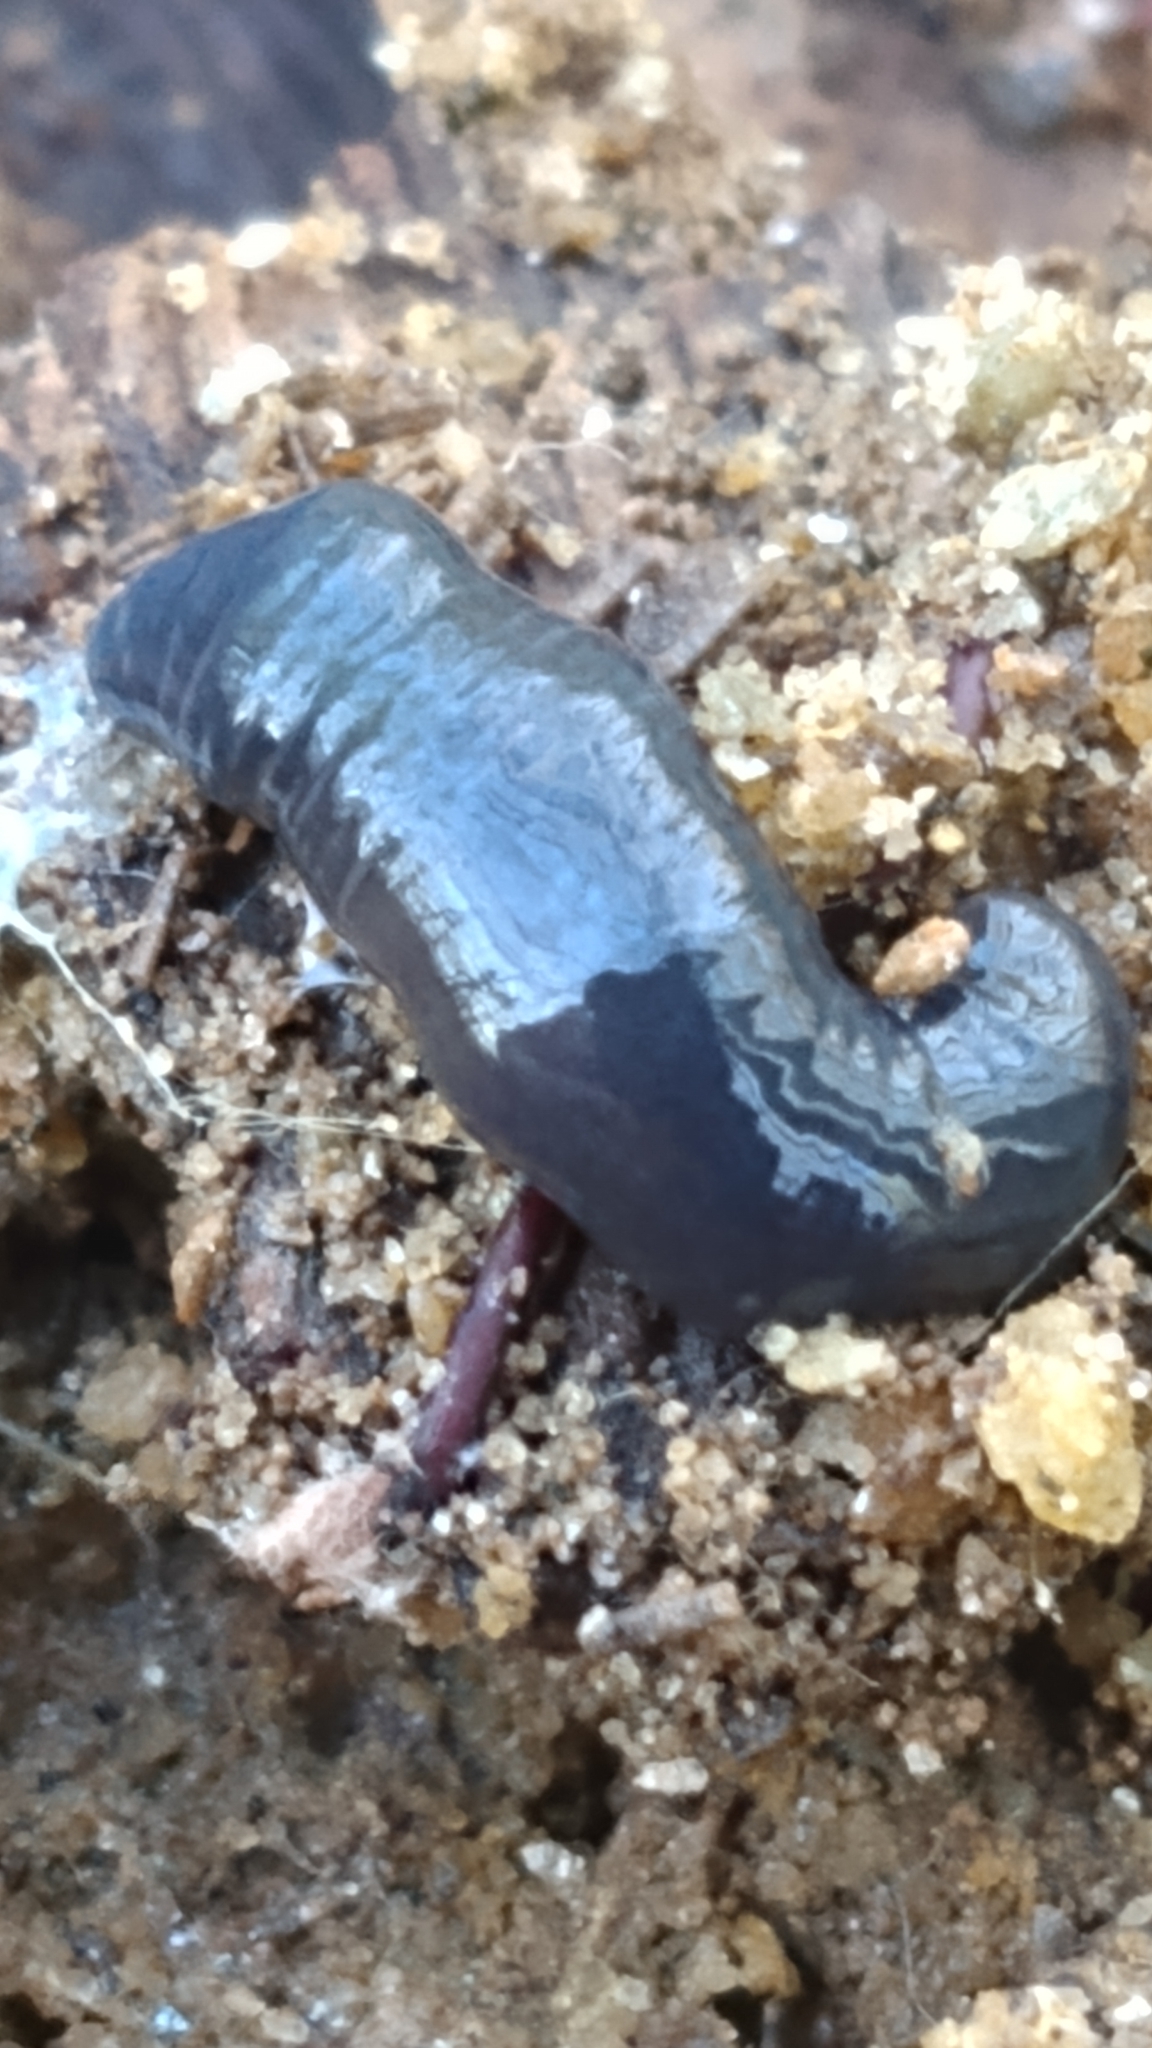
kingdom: Animalia
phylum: Platyhelminthes
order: Tricladida
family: Geoplanidae
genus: Microplana
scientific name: Microplana terrestris
